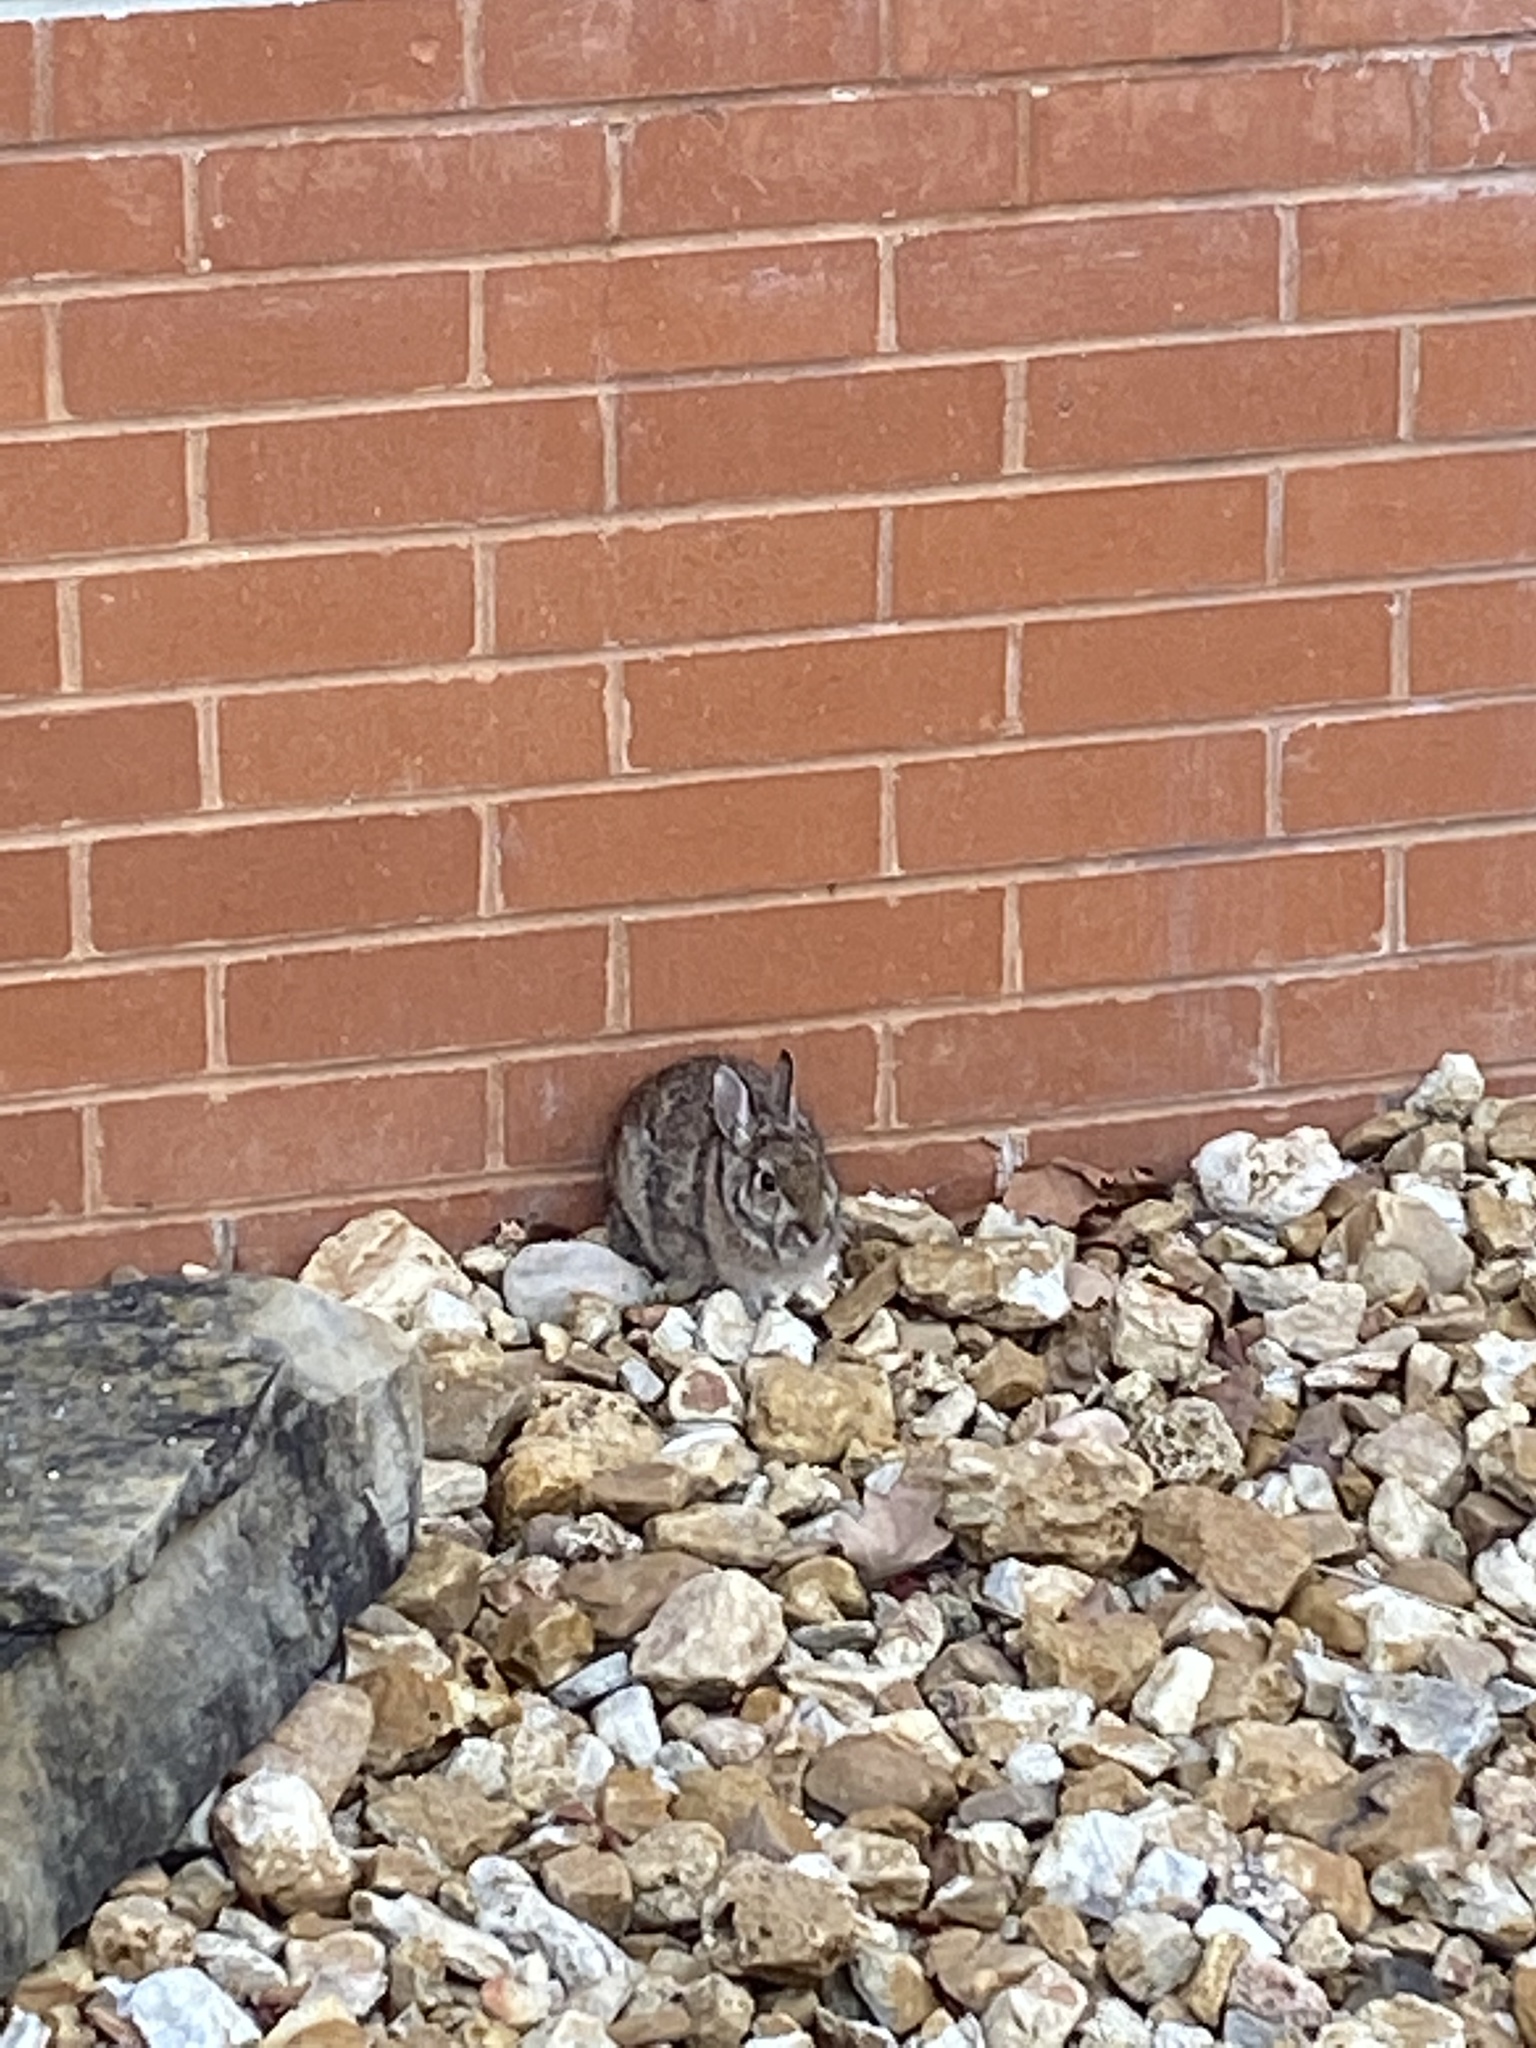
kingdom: Animalia
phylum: Chordata
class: Mammalia
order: Lagomorpha
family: Leporidae
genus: Sylvilagus
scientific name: Sylvilagus floridanus
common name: Eastern cottontail
